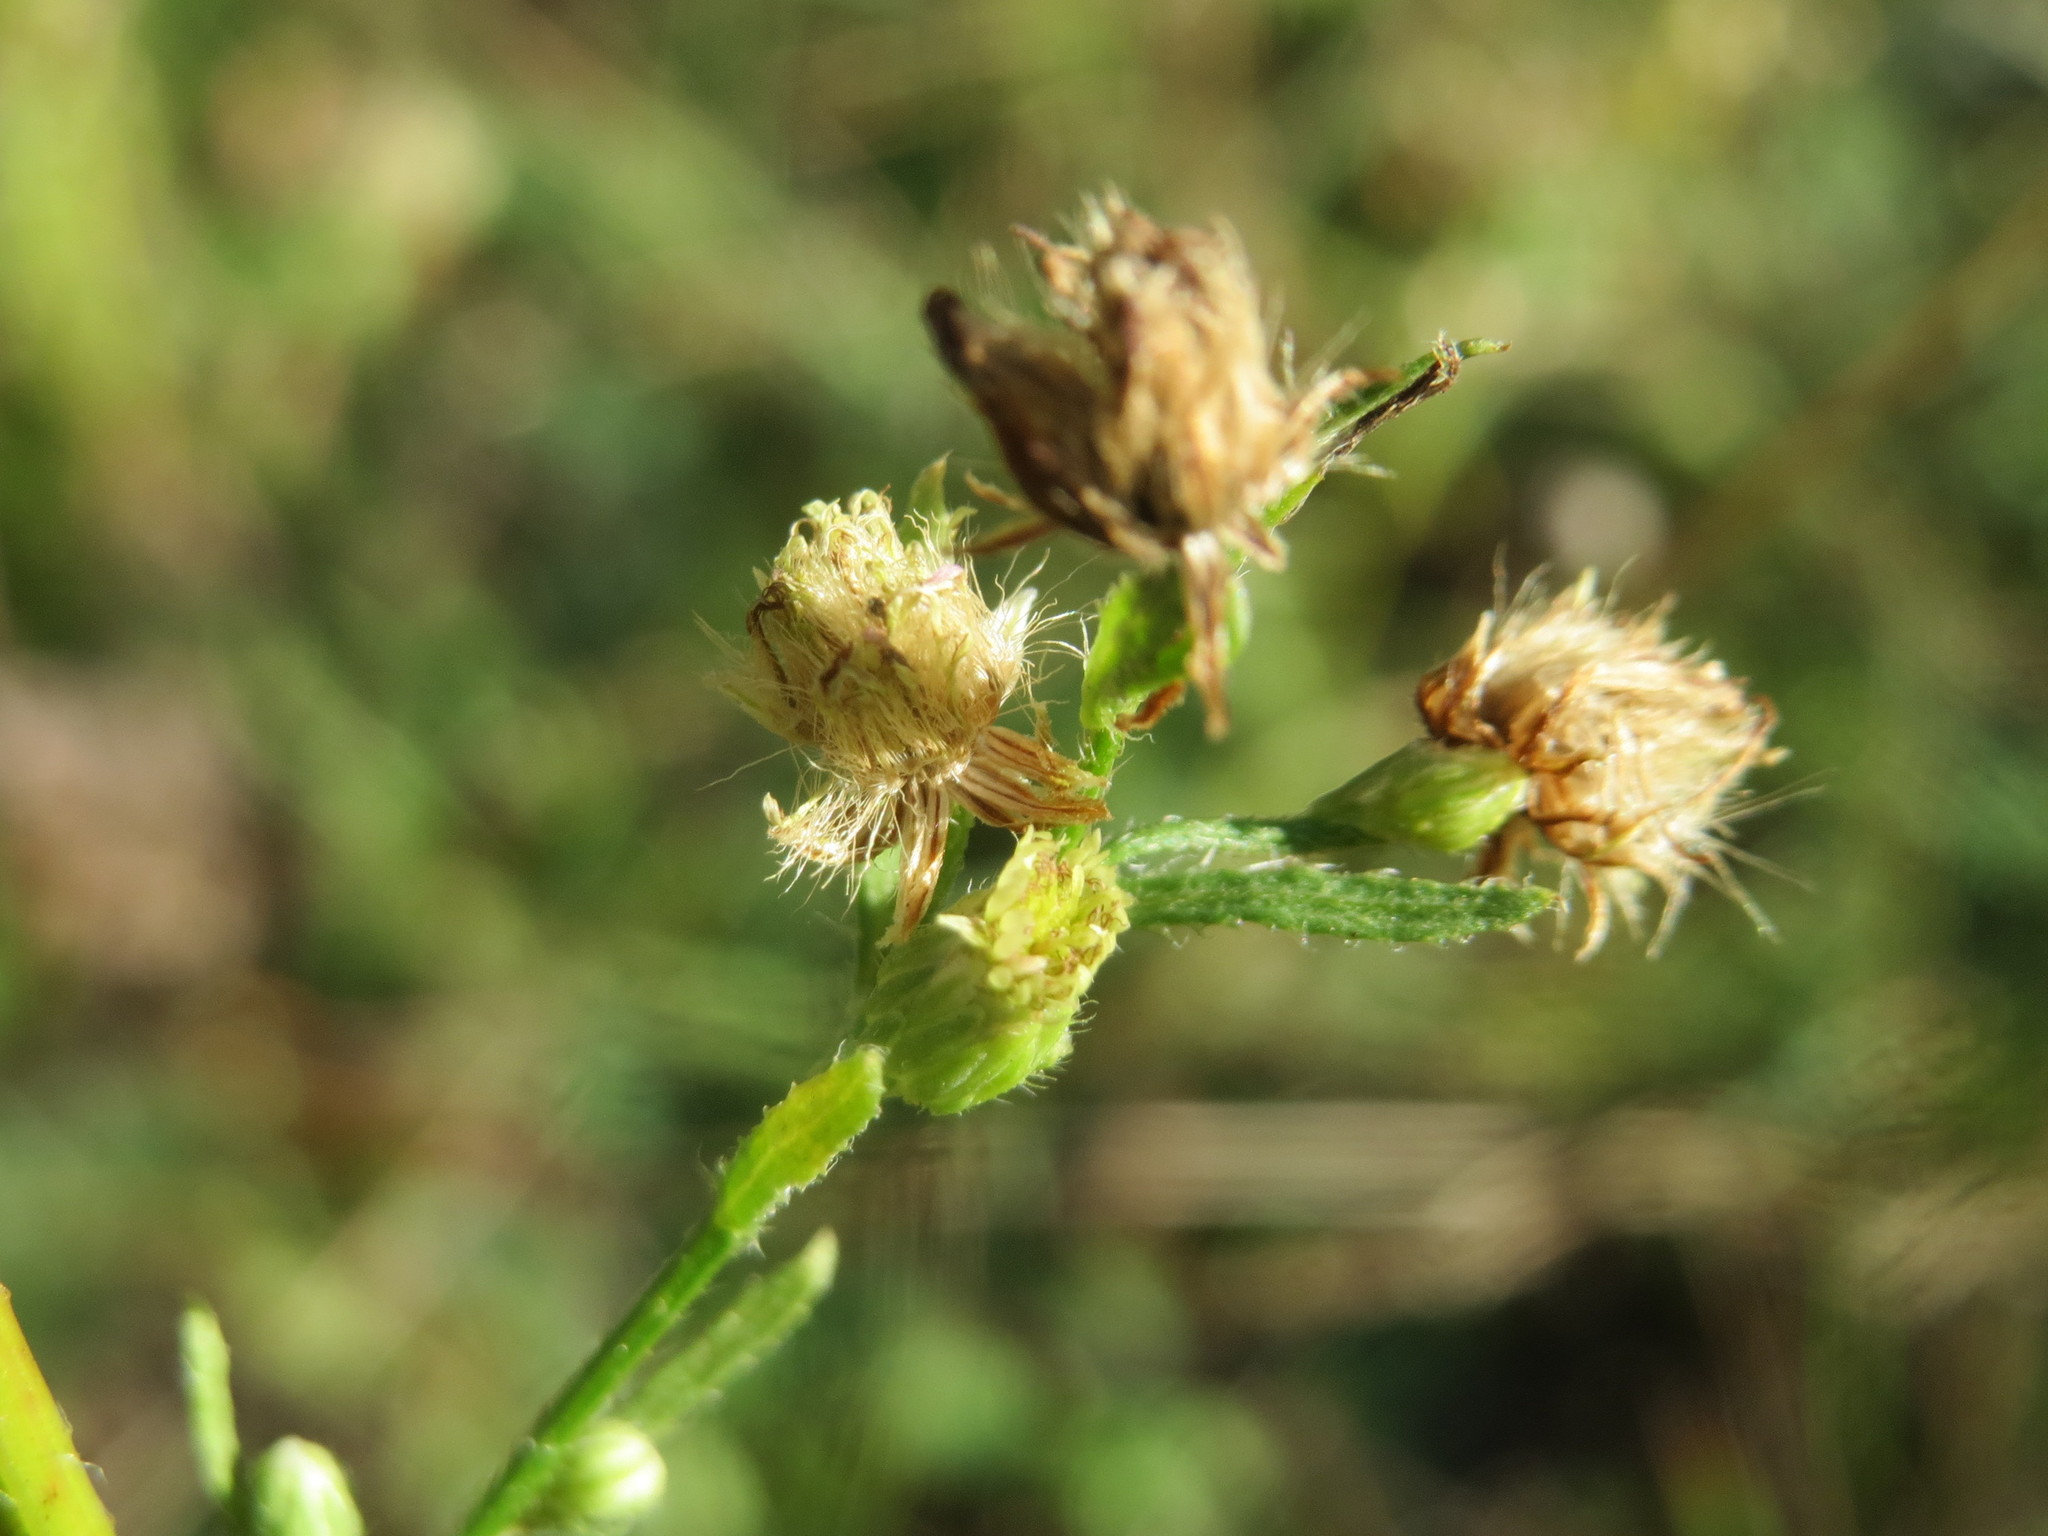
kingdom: Plantae
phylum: Tracheophyta
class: Magnoliopsida
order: Asterales
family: Asteraceae
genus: Erigeron
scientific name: Erigeron canadensis
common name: Canadian fleabane
